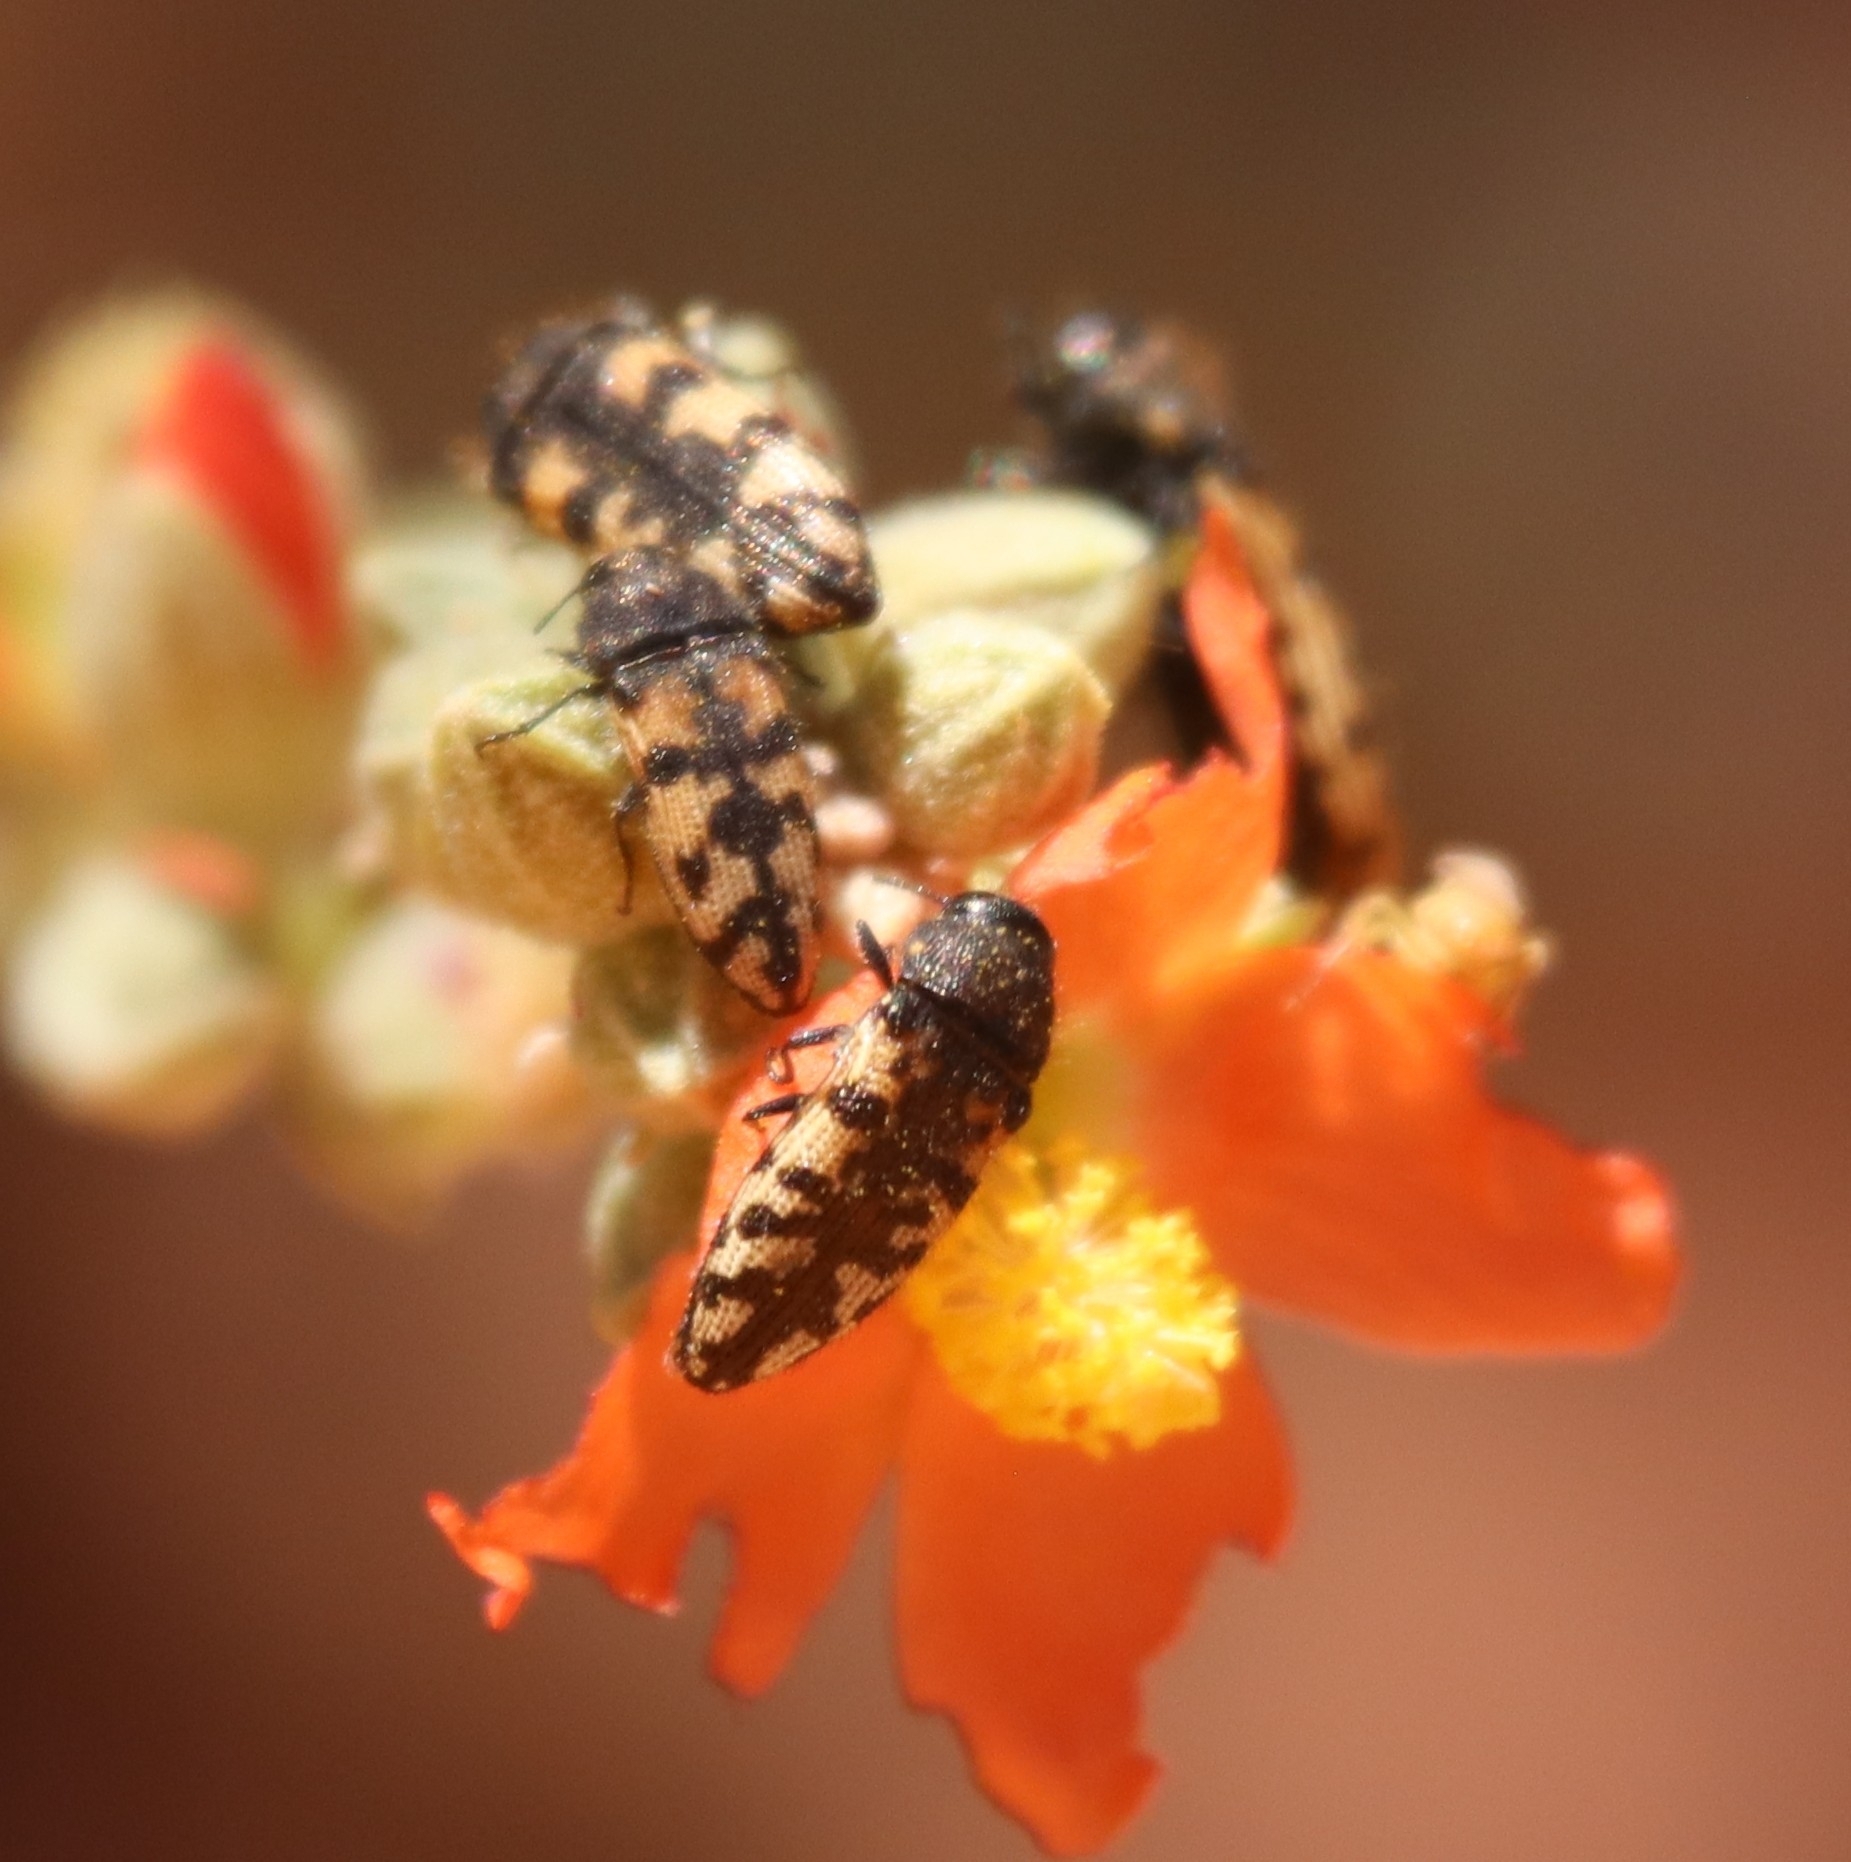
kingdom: Animalia
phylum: Arthropoda
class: Insecta
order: Coleoptera
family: Buprestidae
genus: Acmaeodera
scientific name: Acmaeodera diffusa
